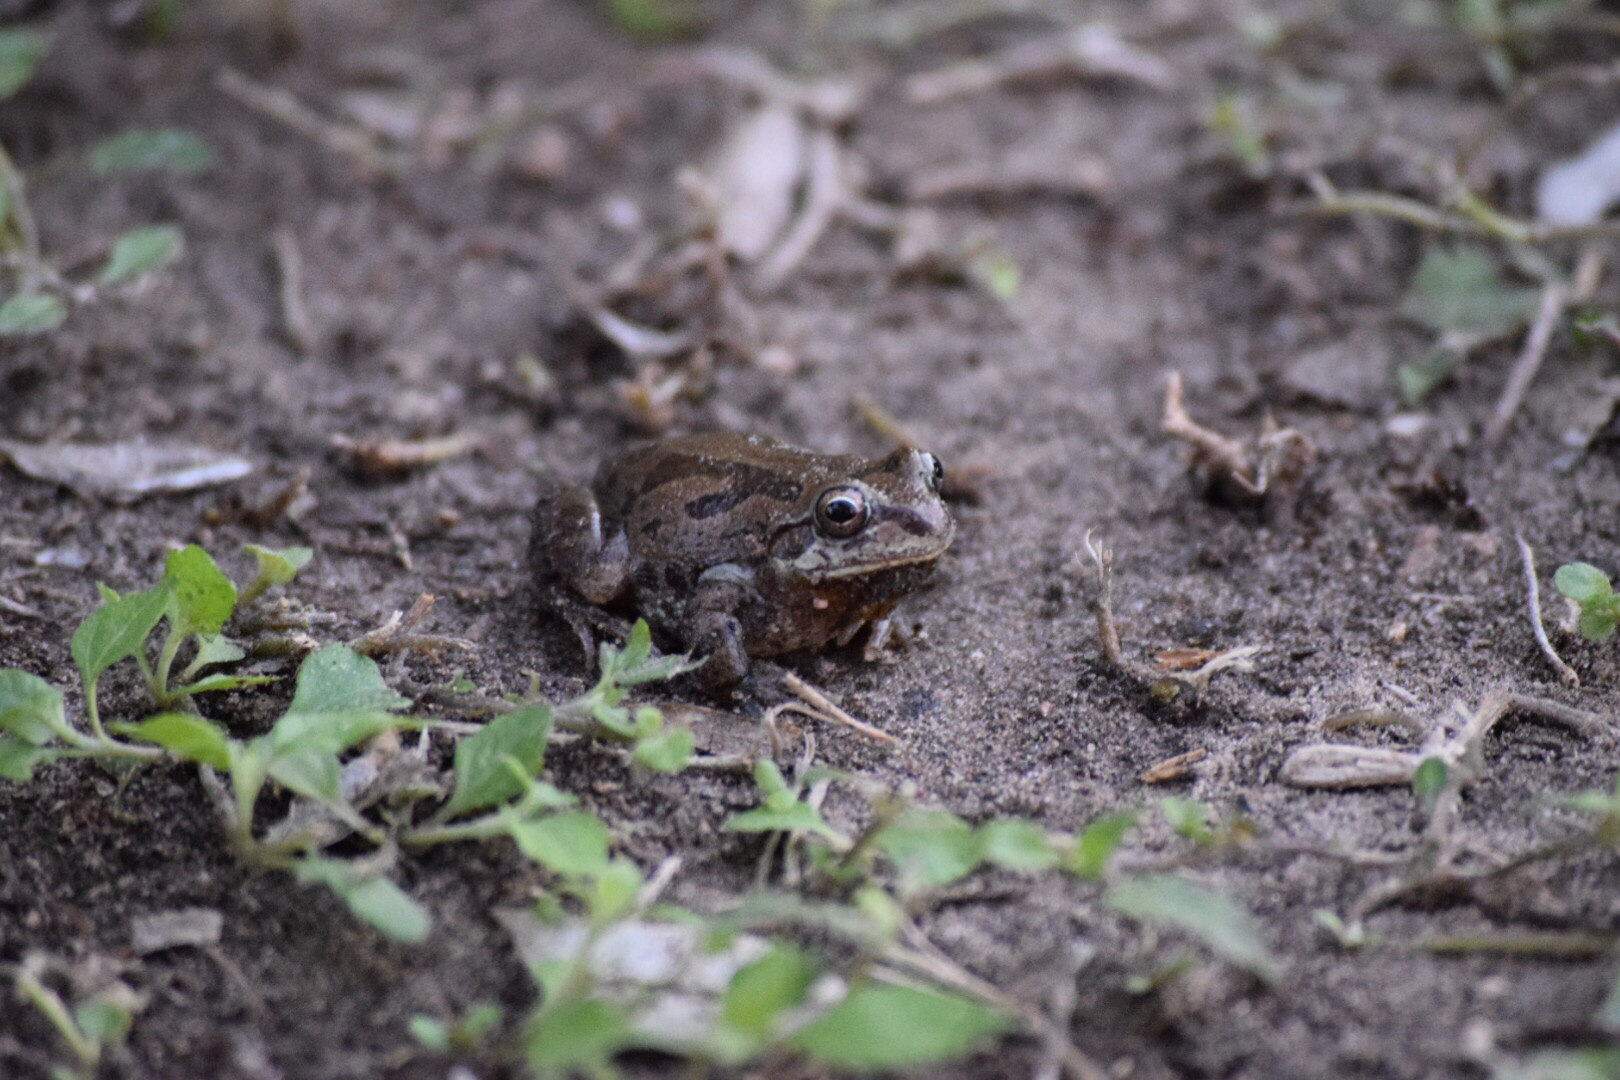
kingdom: Animalia
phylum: Chordata
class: Amphibia
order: Anura
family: Hylidae
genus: Pseudacris
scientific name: Pseudacris streckeri
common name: Strecker's chorus frog
